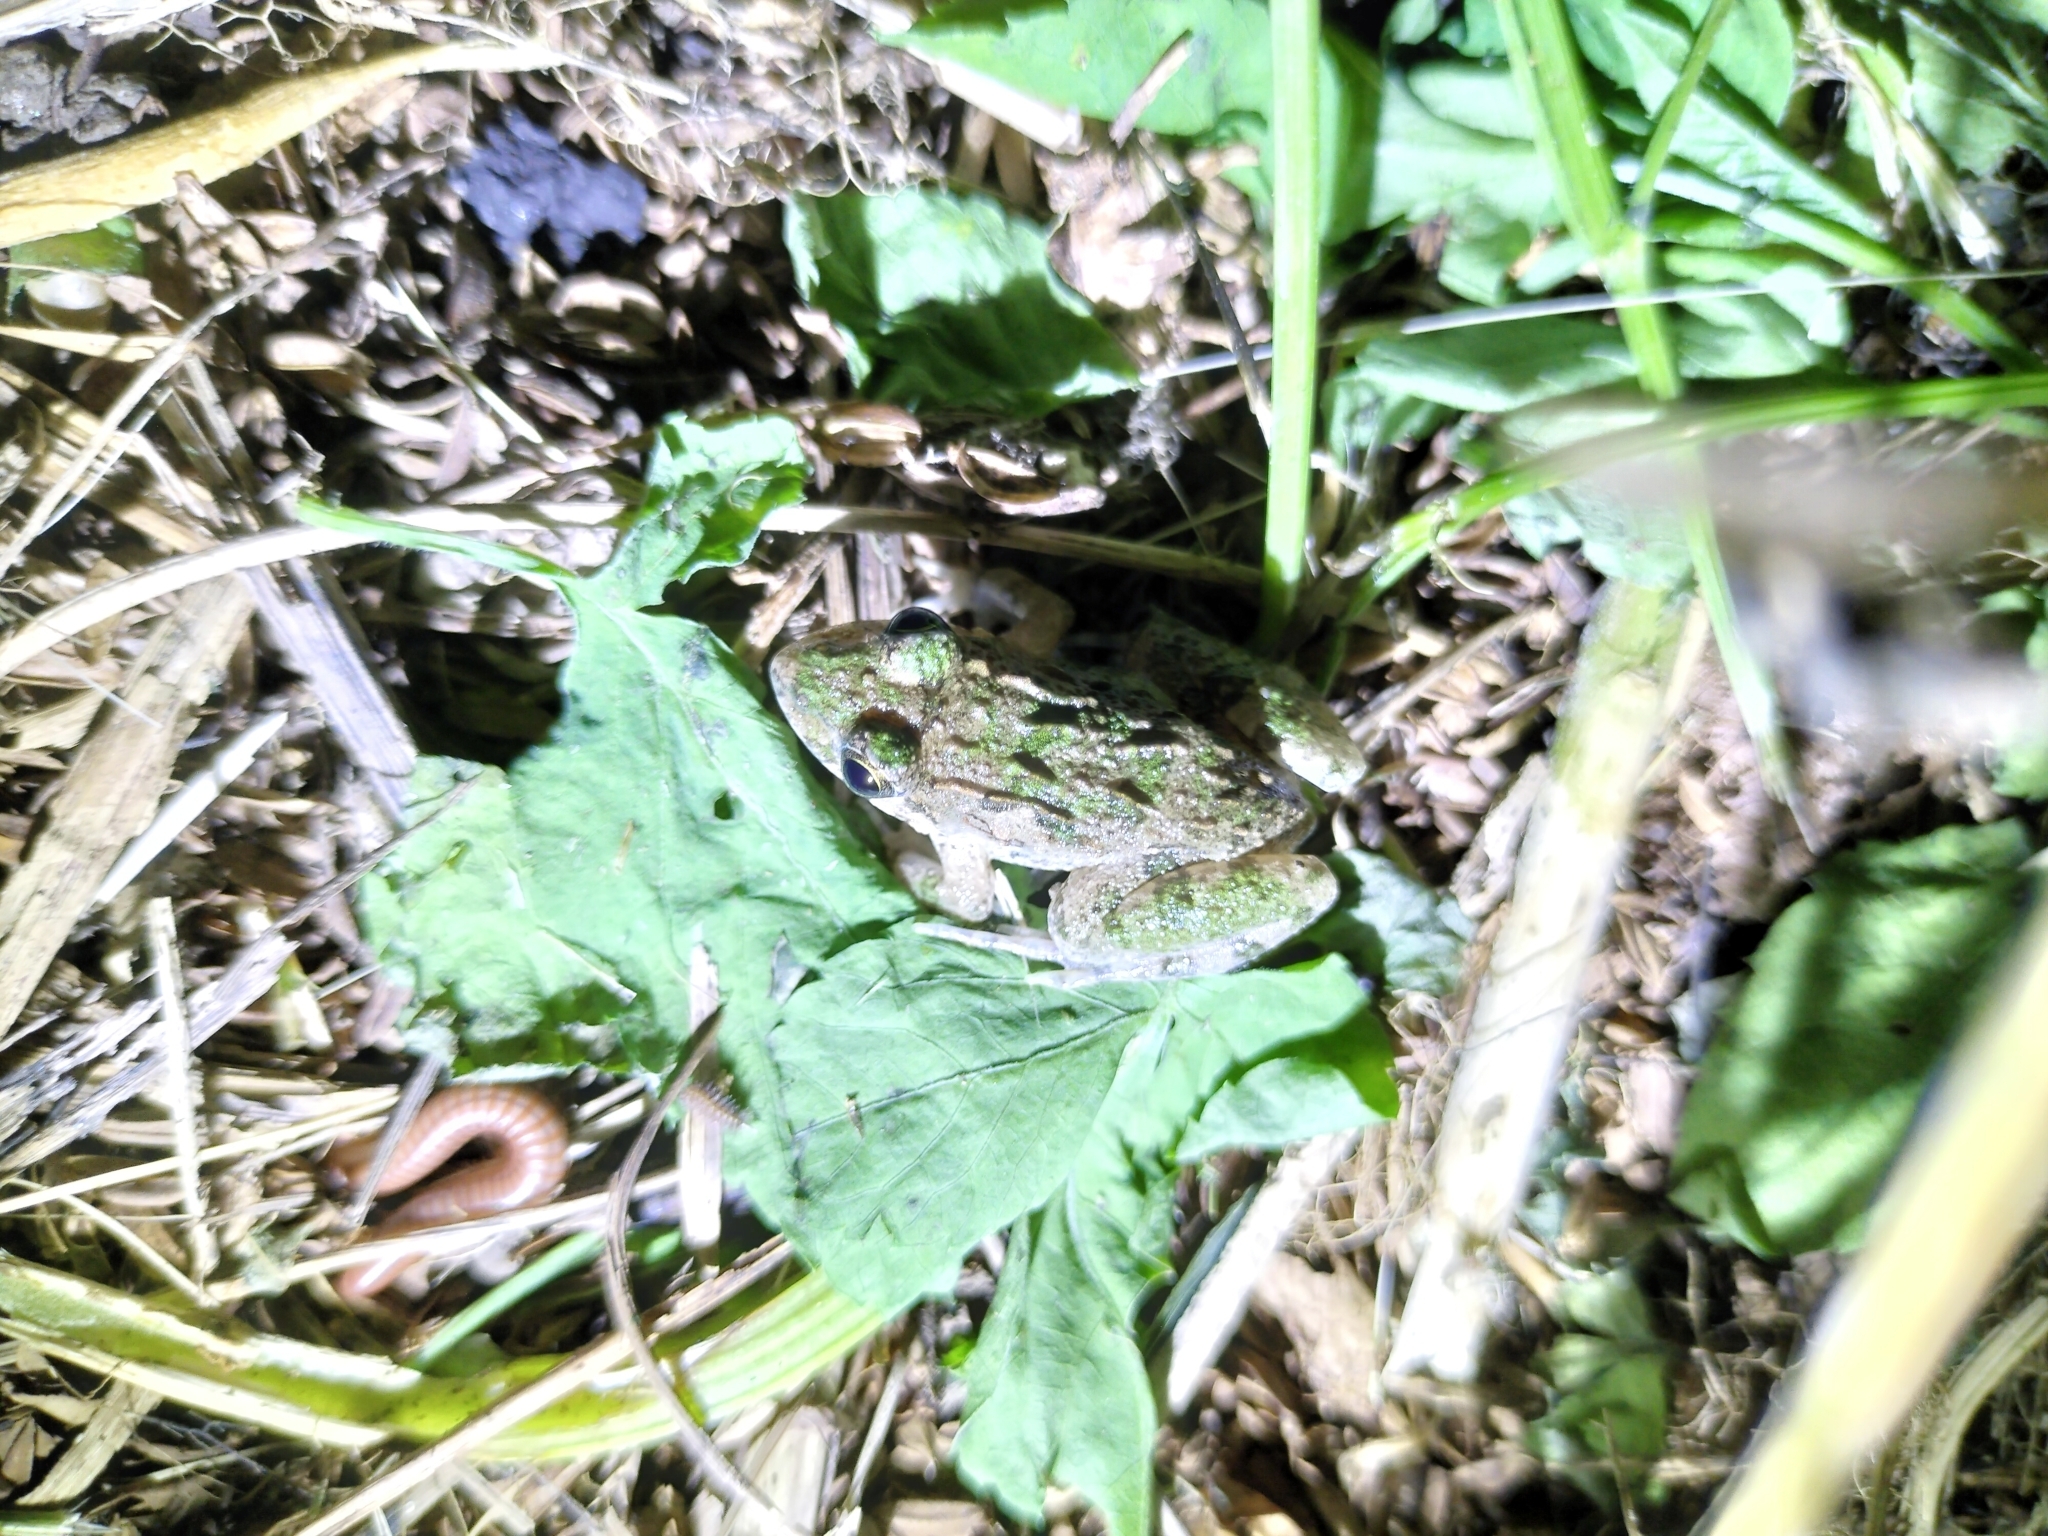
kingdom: Animalia
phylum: Chordata
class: Amphibia
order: Anura
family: Dicroglossidae
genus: Fejervarya
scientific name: Fejervarya limnocharis
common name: Asian grass frog/common pond frog/field frog/grass frog/indian rice frog
